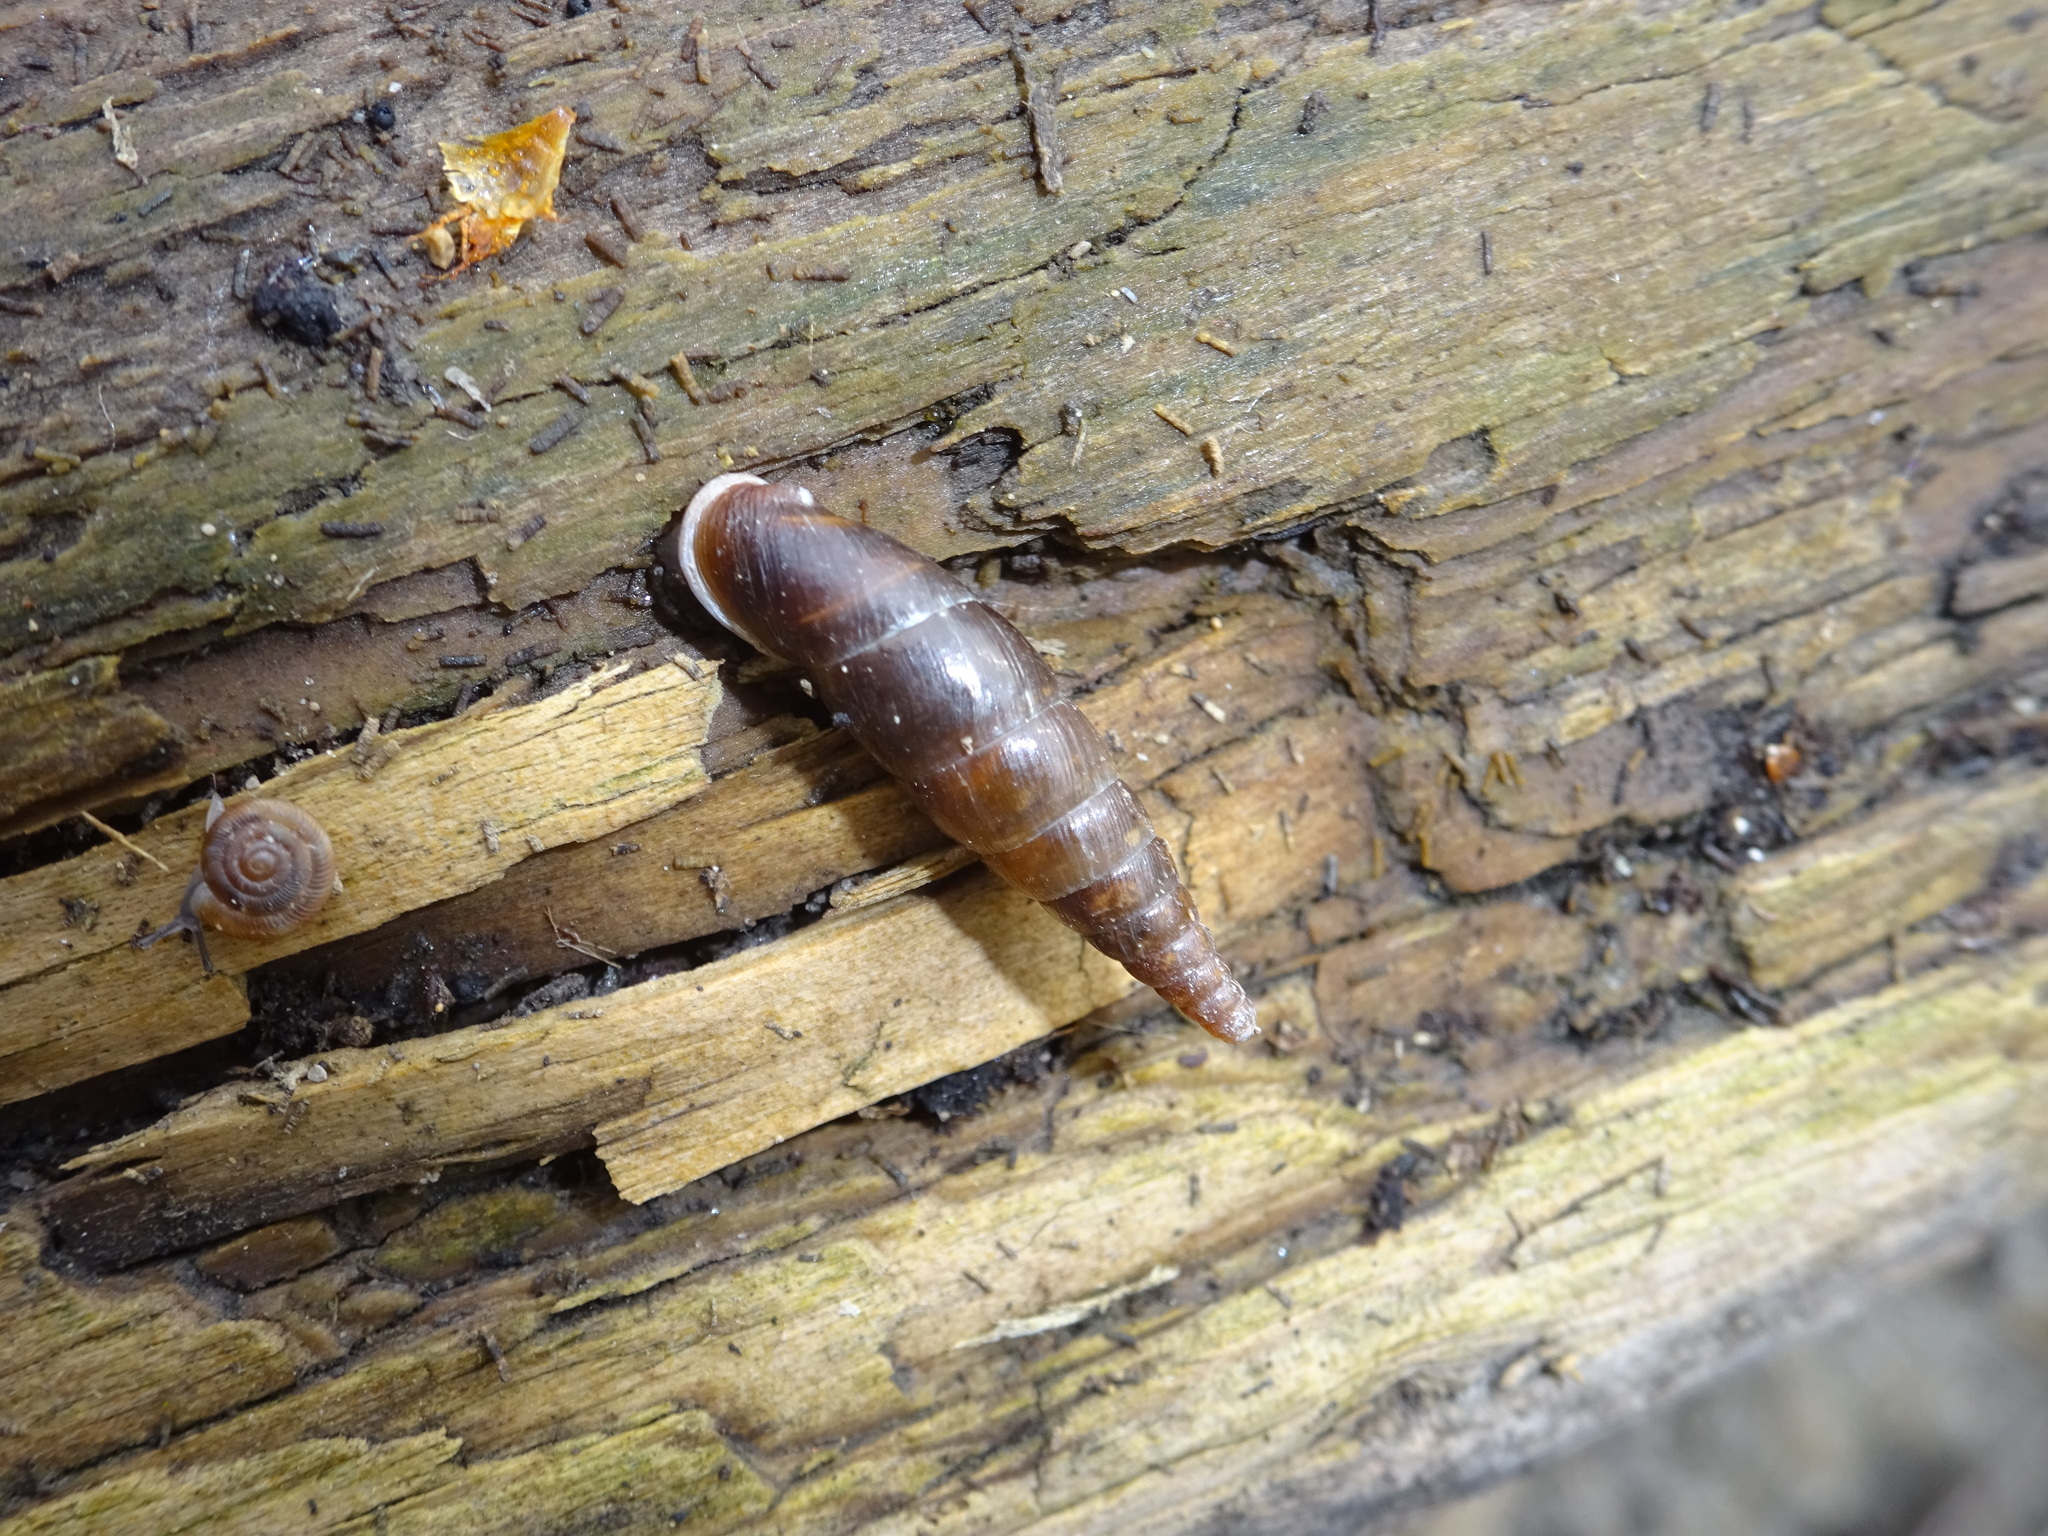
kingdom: Animalia
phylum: Mollusca
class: Gastropoda
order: Stylommatophora
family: Clausiliidae
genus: Cochlodina
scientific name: Cochlodina laminata
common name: Plaited door snail
